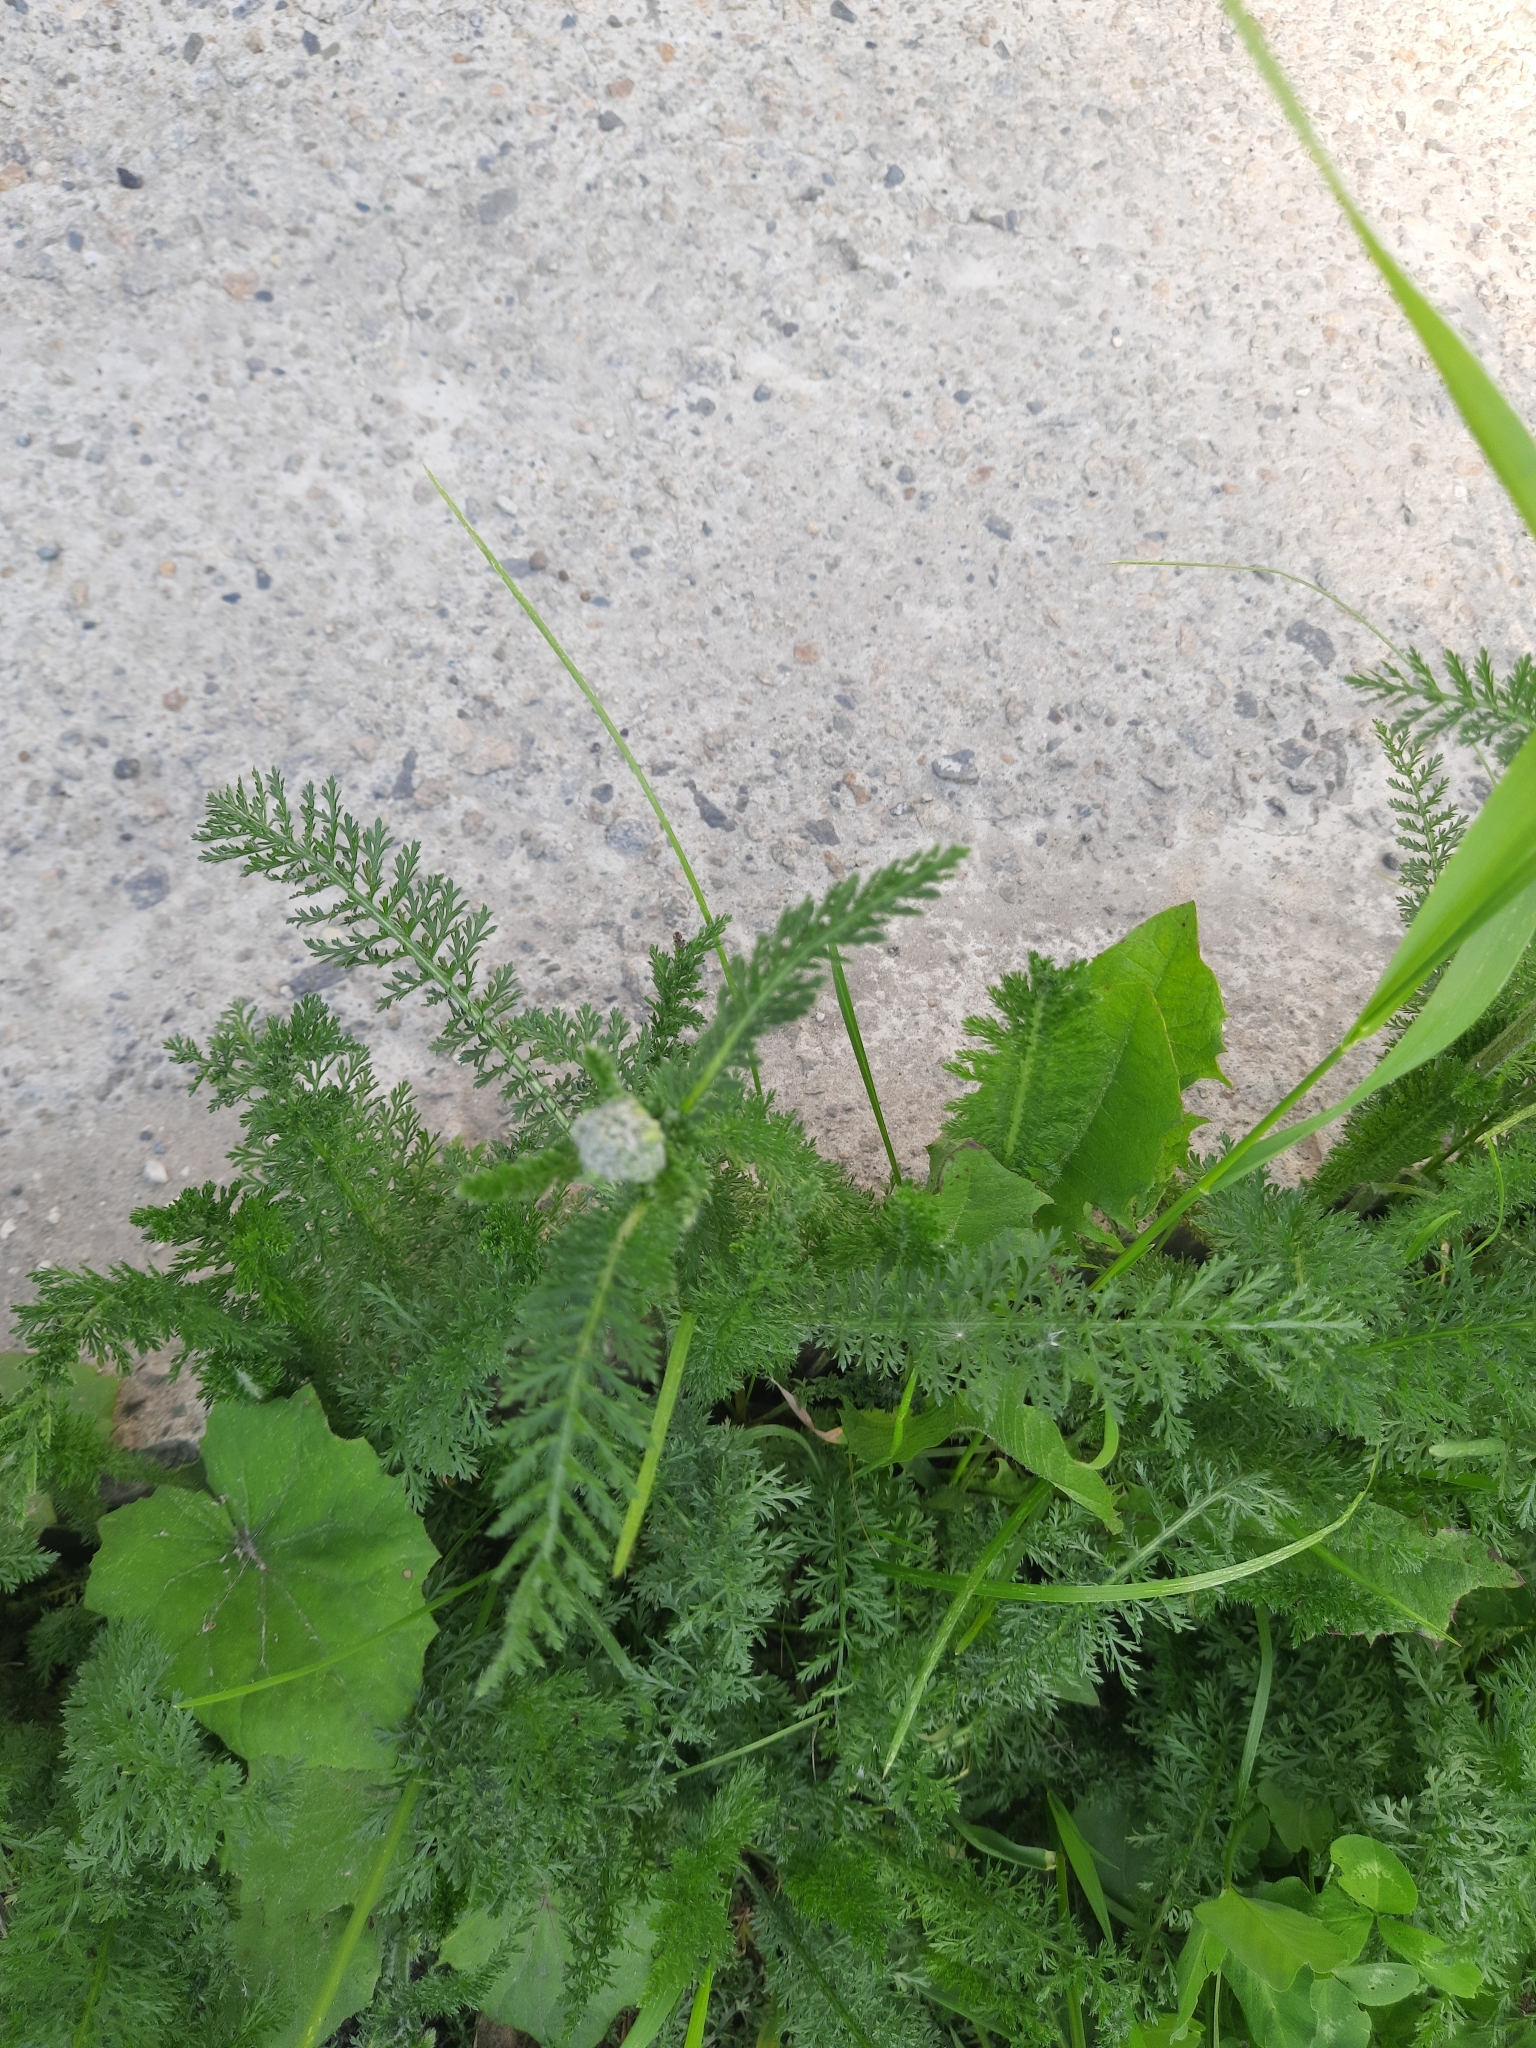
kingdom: Plantae
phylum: Tracheophyta
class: Magnoliopsida
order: Asterales
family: Asteraceae
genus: Achillea
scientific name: Achillea millefolium
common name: Yarrow
